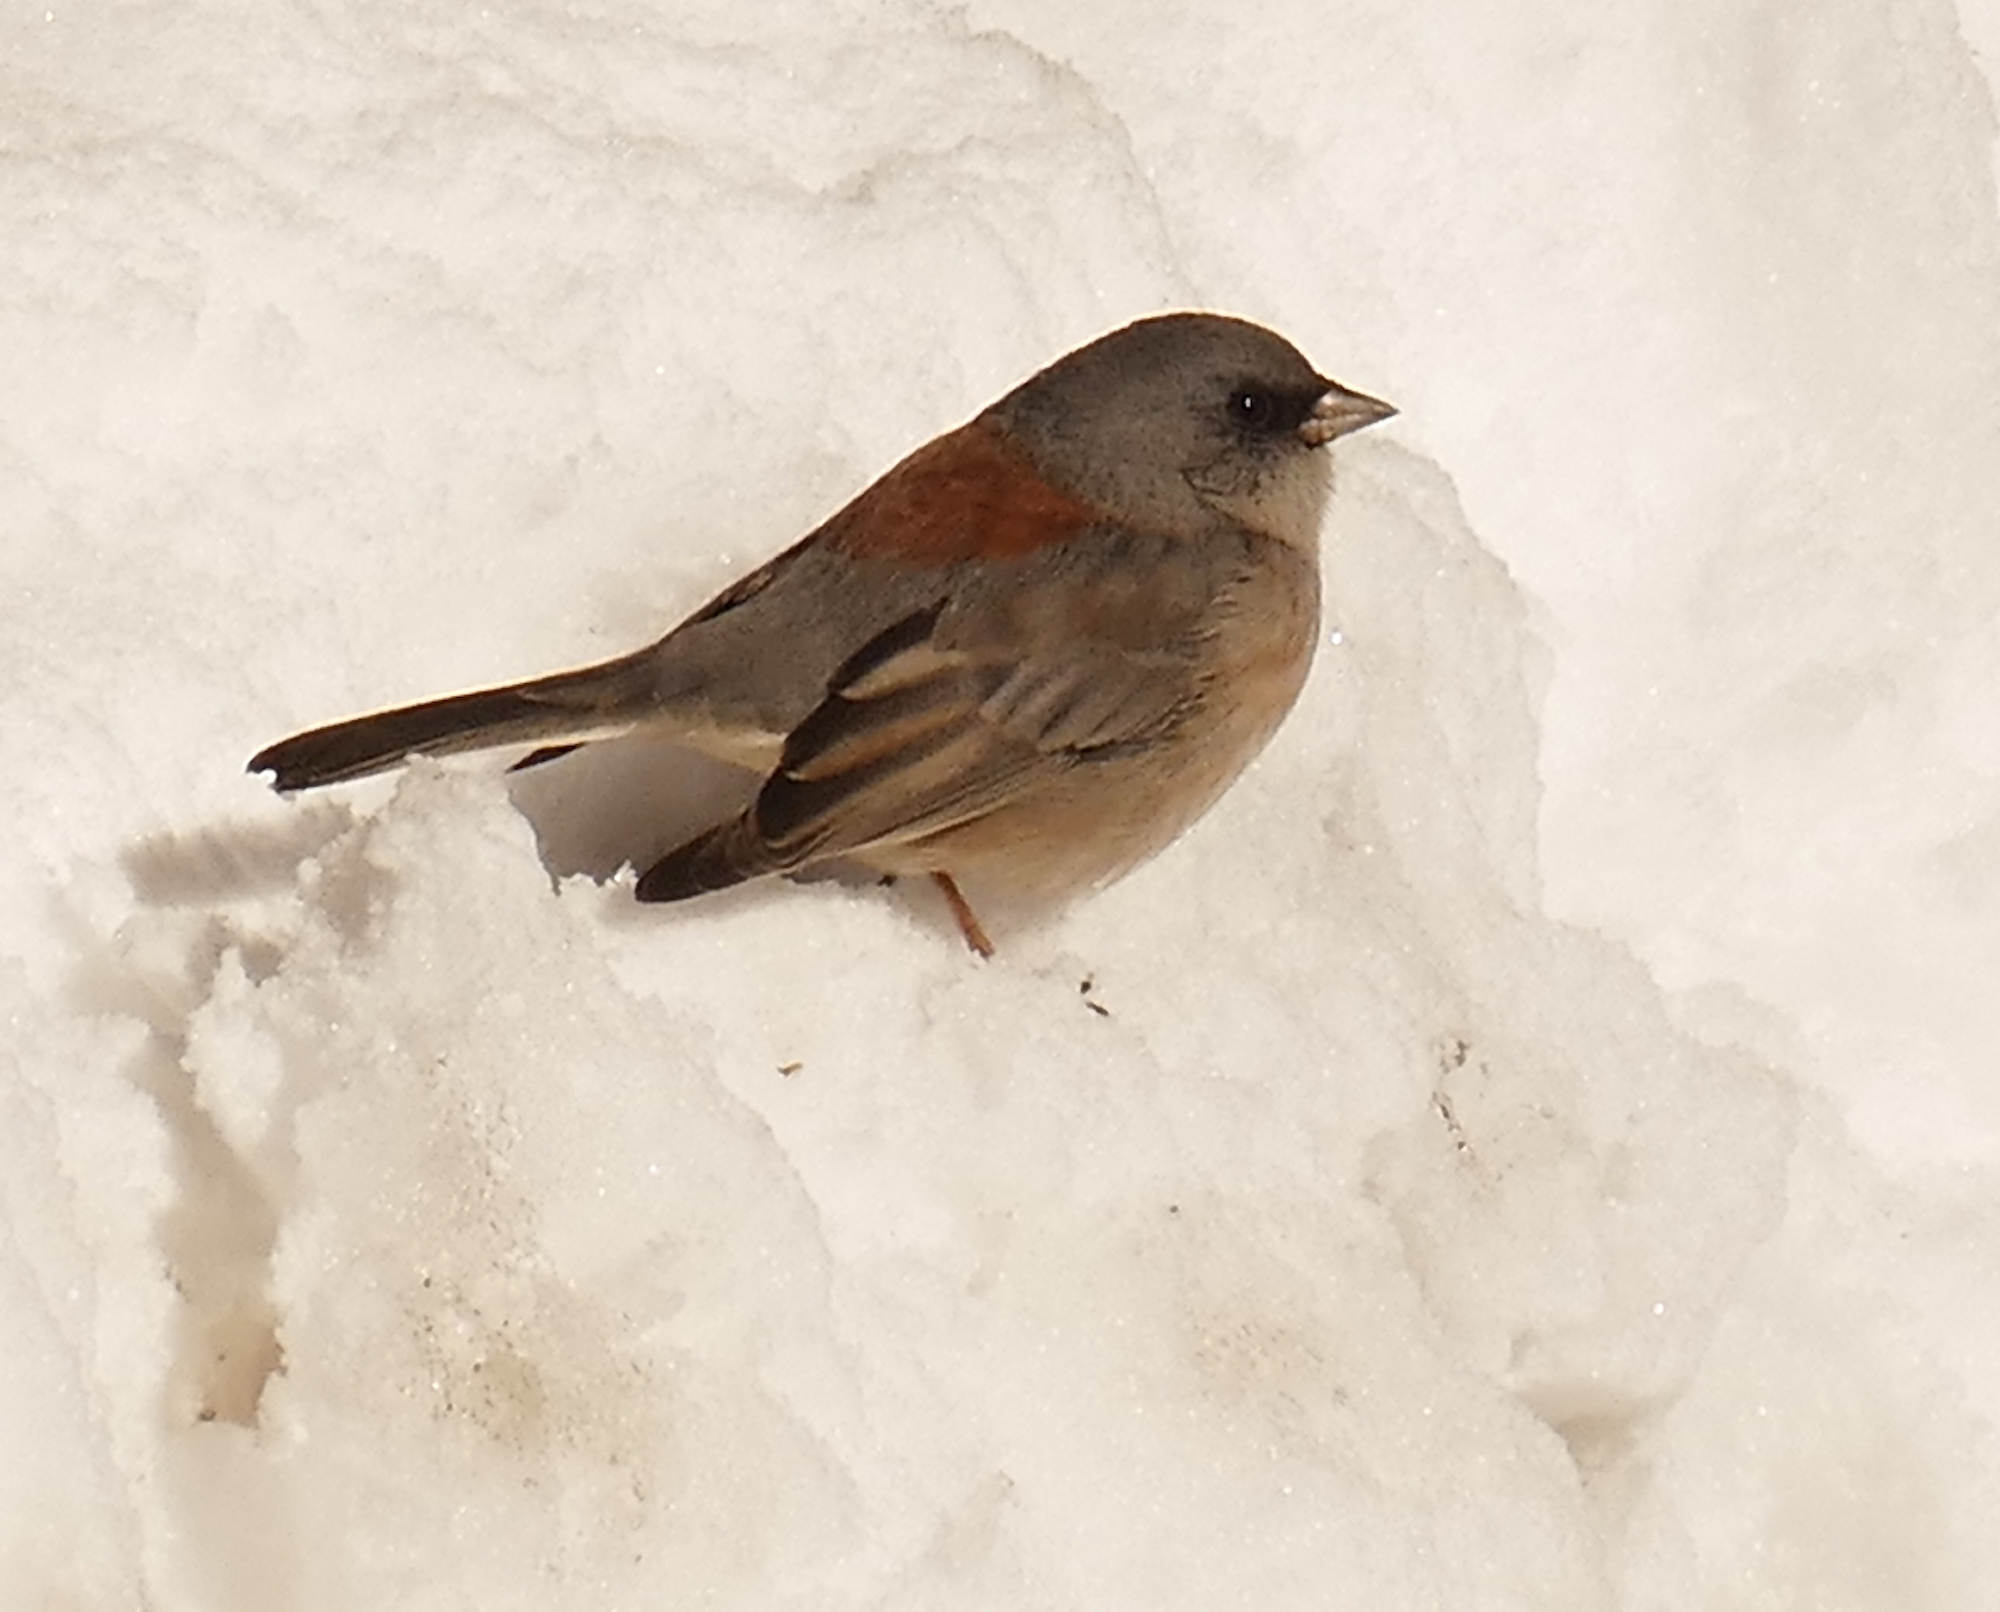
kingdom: Animalia
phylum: Chordata
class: Aves
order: Passeriformes
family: Passerellidae
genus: Junco
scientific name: Junco hyemalis
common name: Dark-eyed junco
